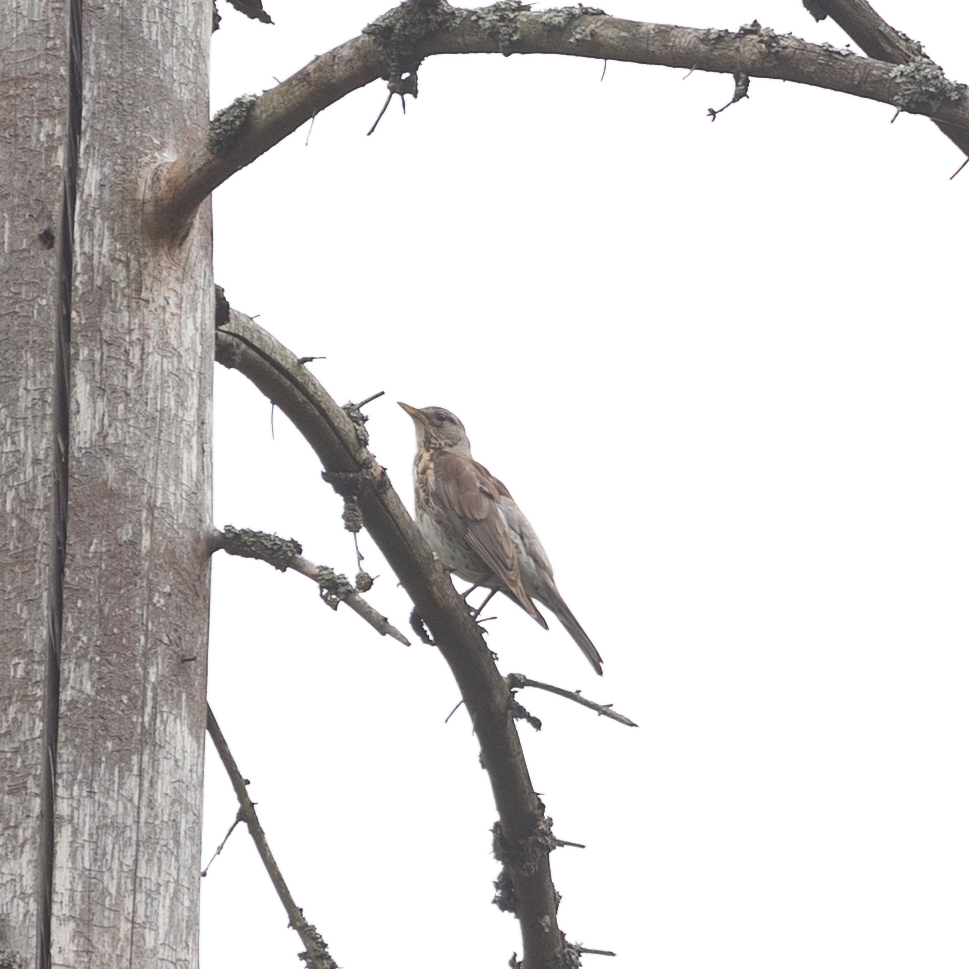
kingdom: Animalia
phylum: Chordata
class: Aves
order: Passeriformes
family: Turdidae
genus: Turdus
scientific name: Turdus pilaris
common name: Fieldfare
